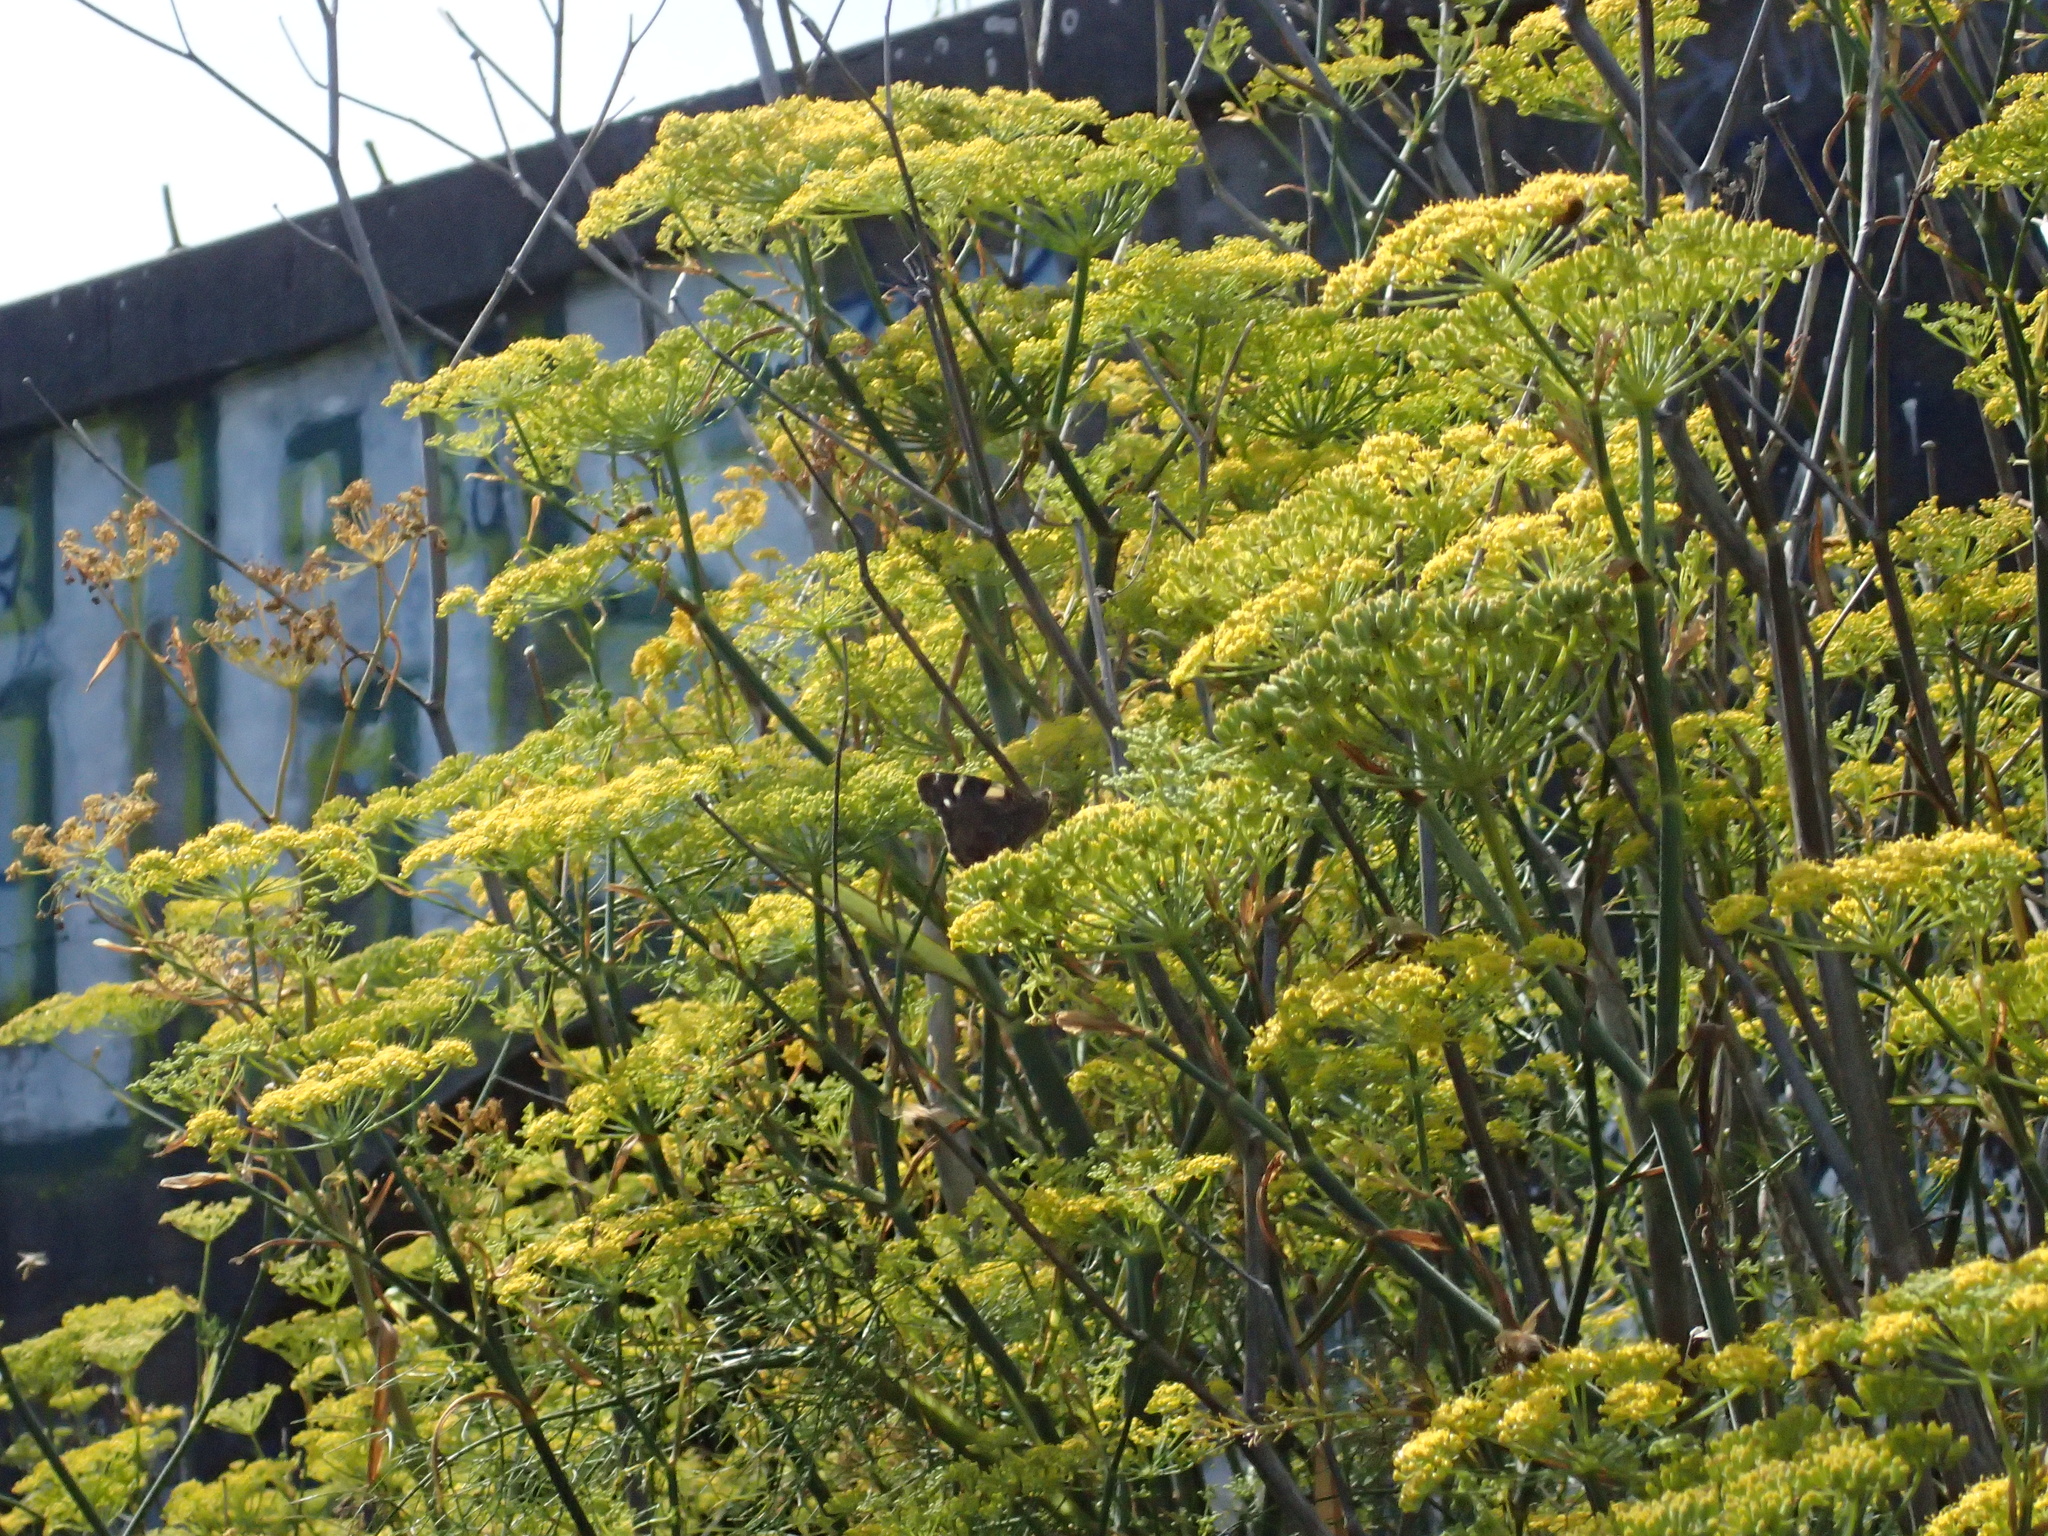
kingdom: Animalia
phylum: Arthropoda
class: Insecta
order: Lepidoptera
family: Nymphalidae
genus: Vanessa
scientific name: Vanessa itea
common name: Yellow admiral
